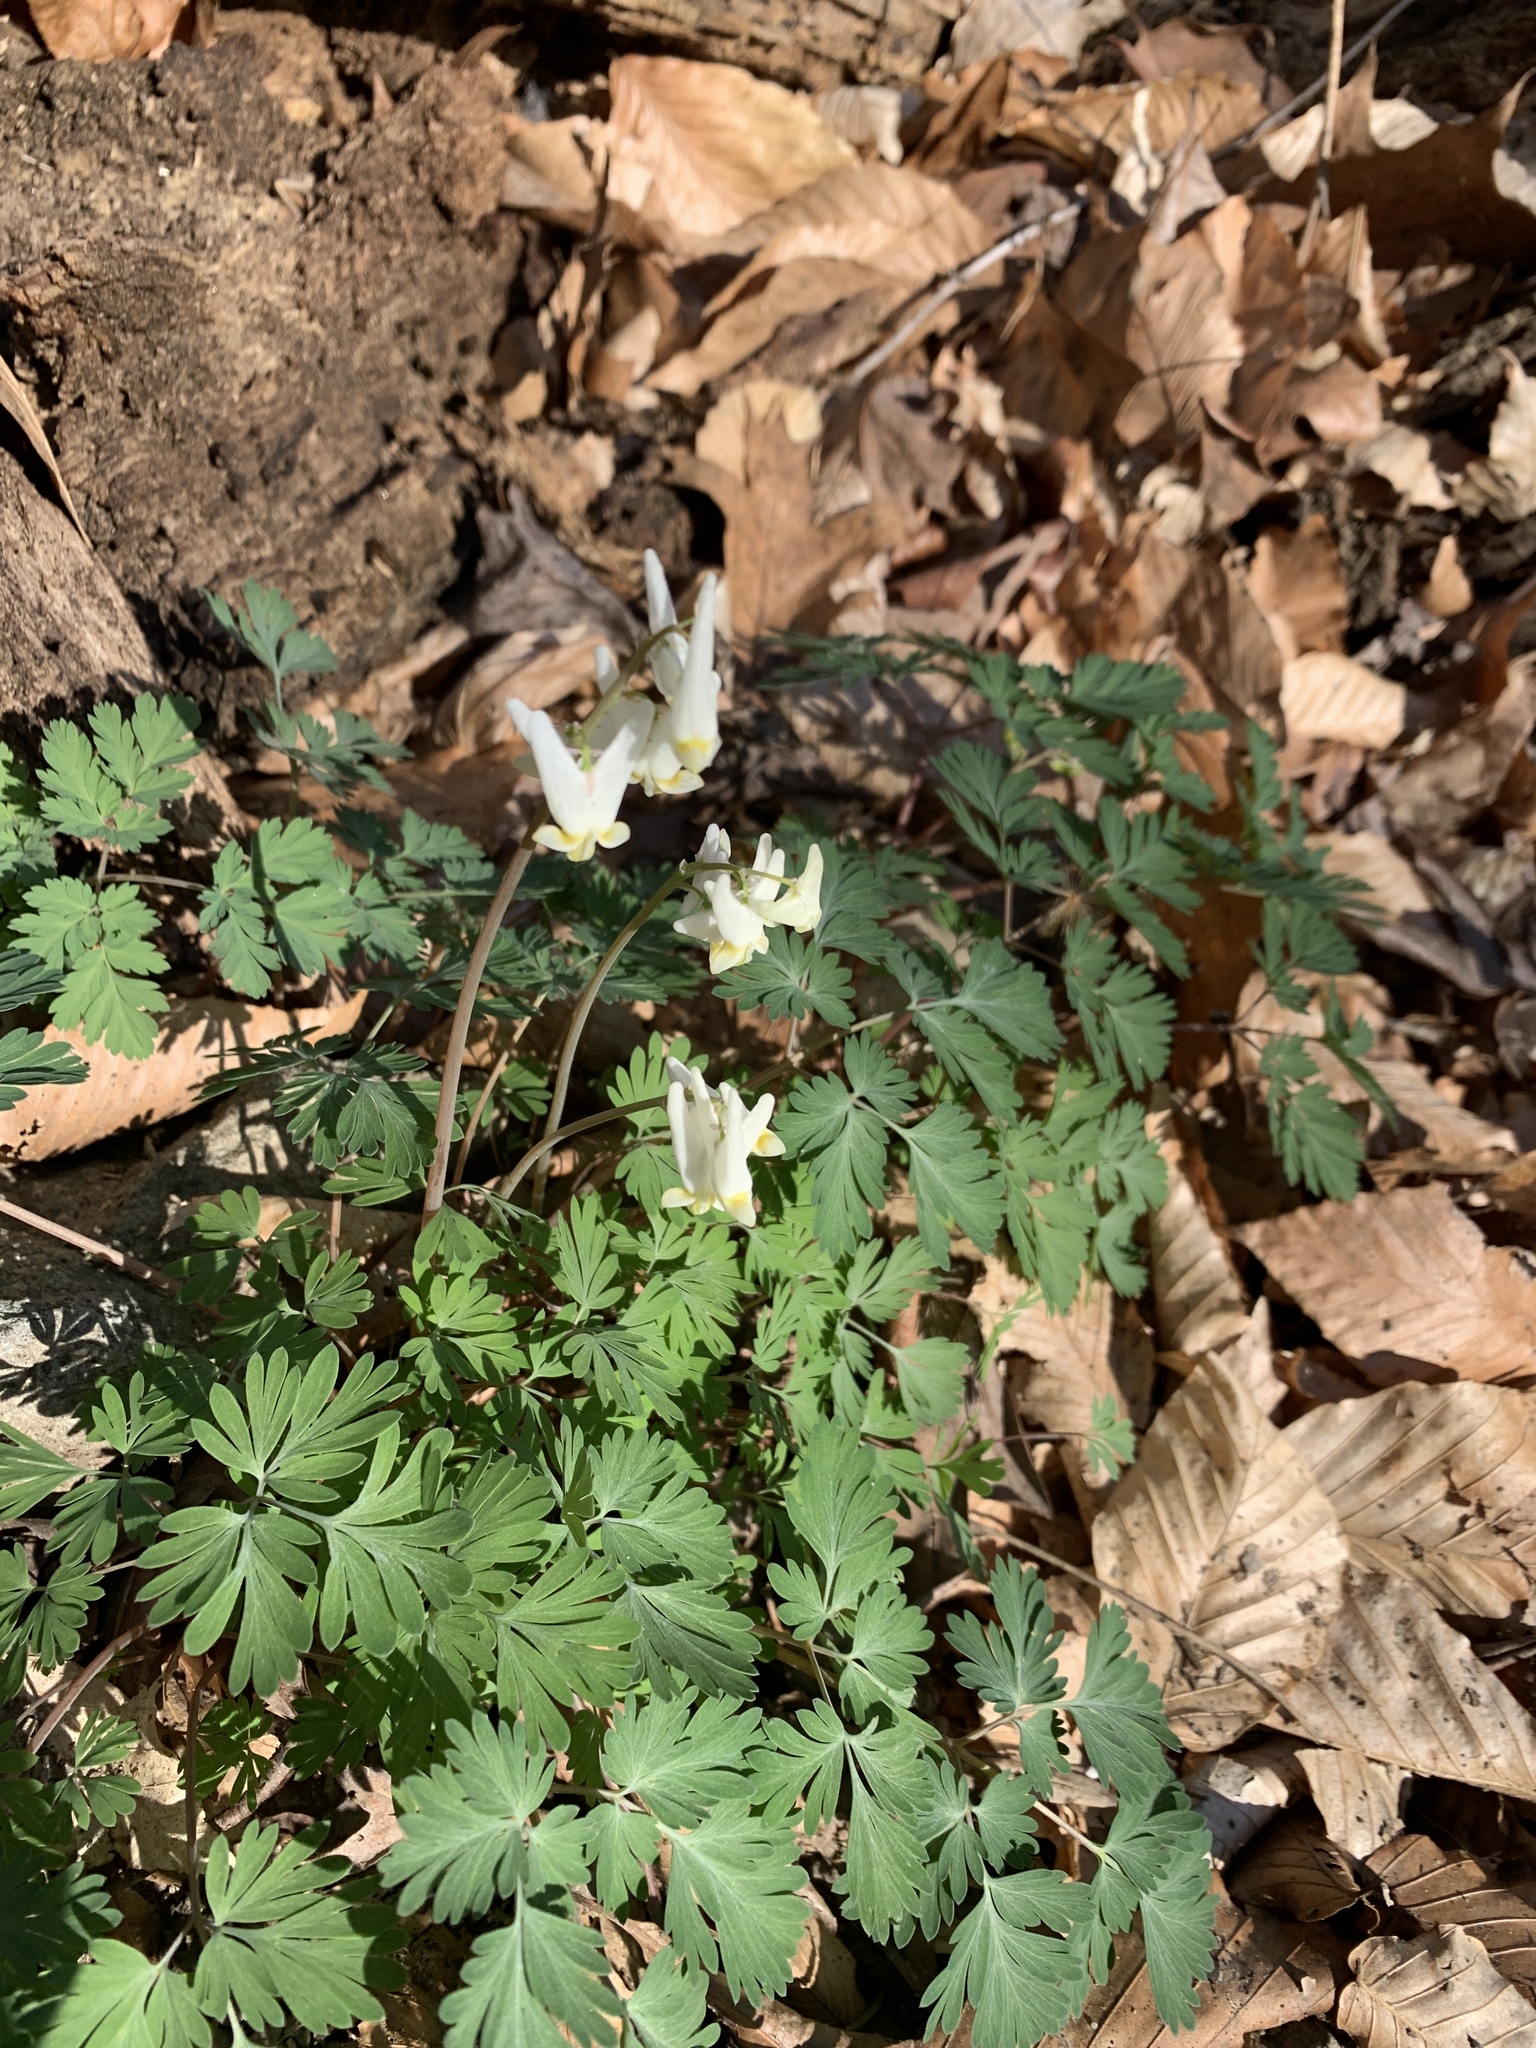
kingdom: Plantae
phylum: Tracheophyta
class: Magnoliopsida
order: Ranunculales
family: Papaveraceae
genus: Dicentra
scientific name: Dicentra cucullaria
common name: Dutchman's breeches
